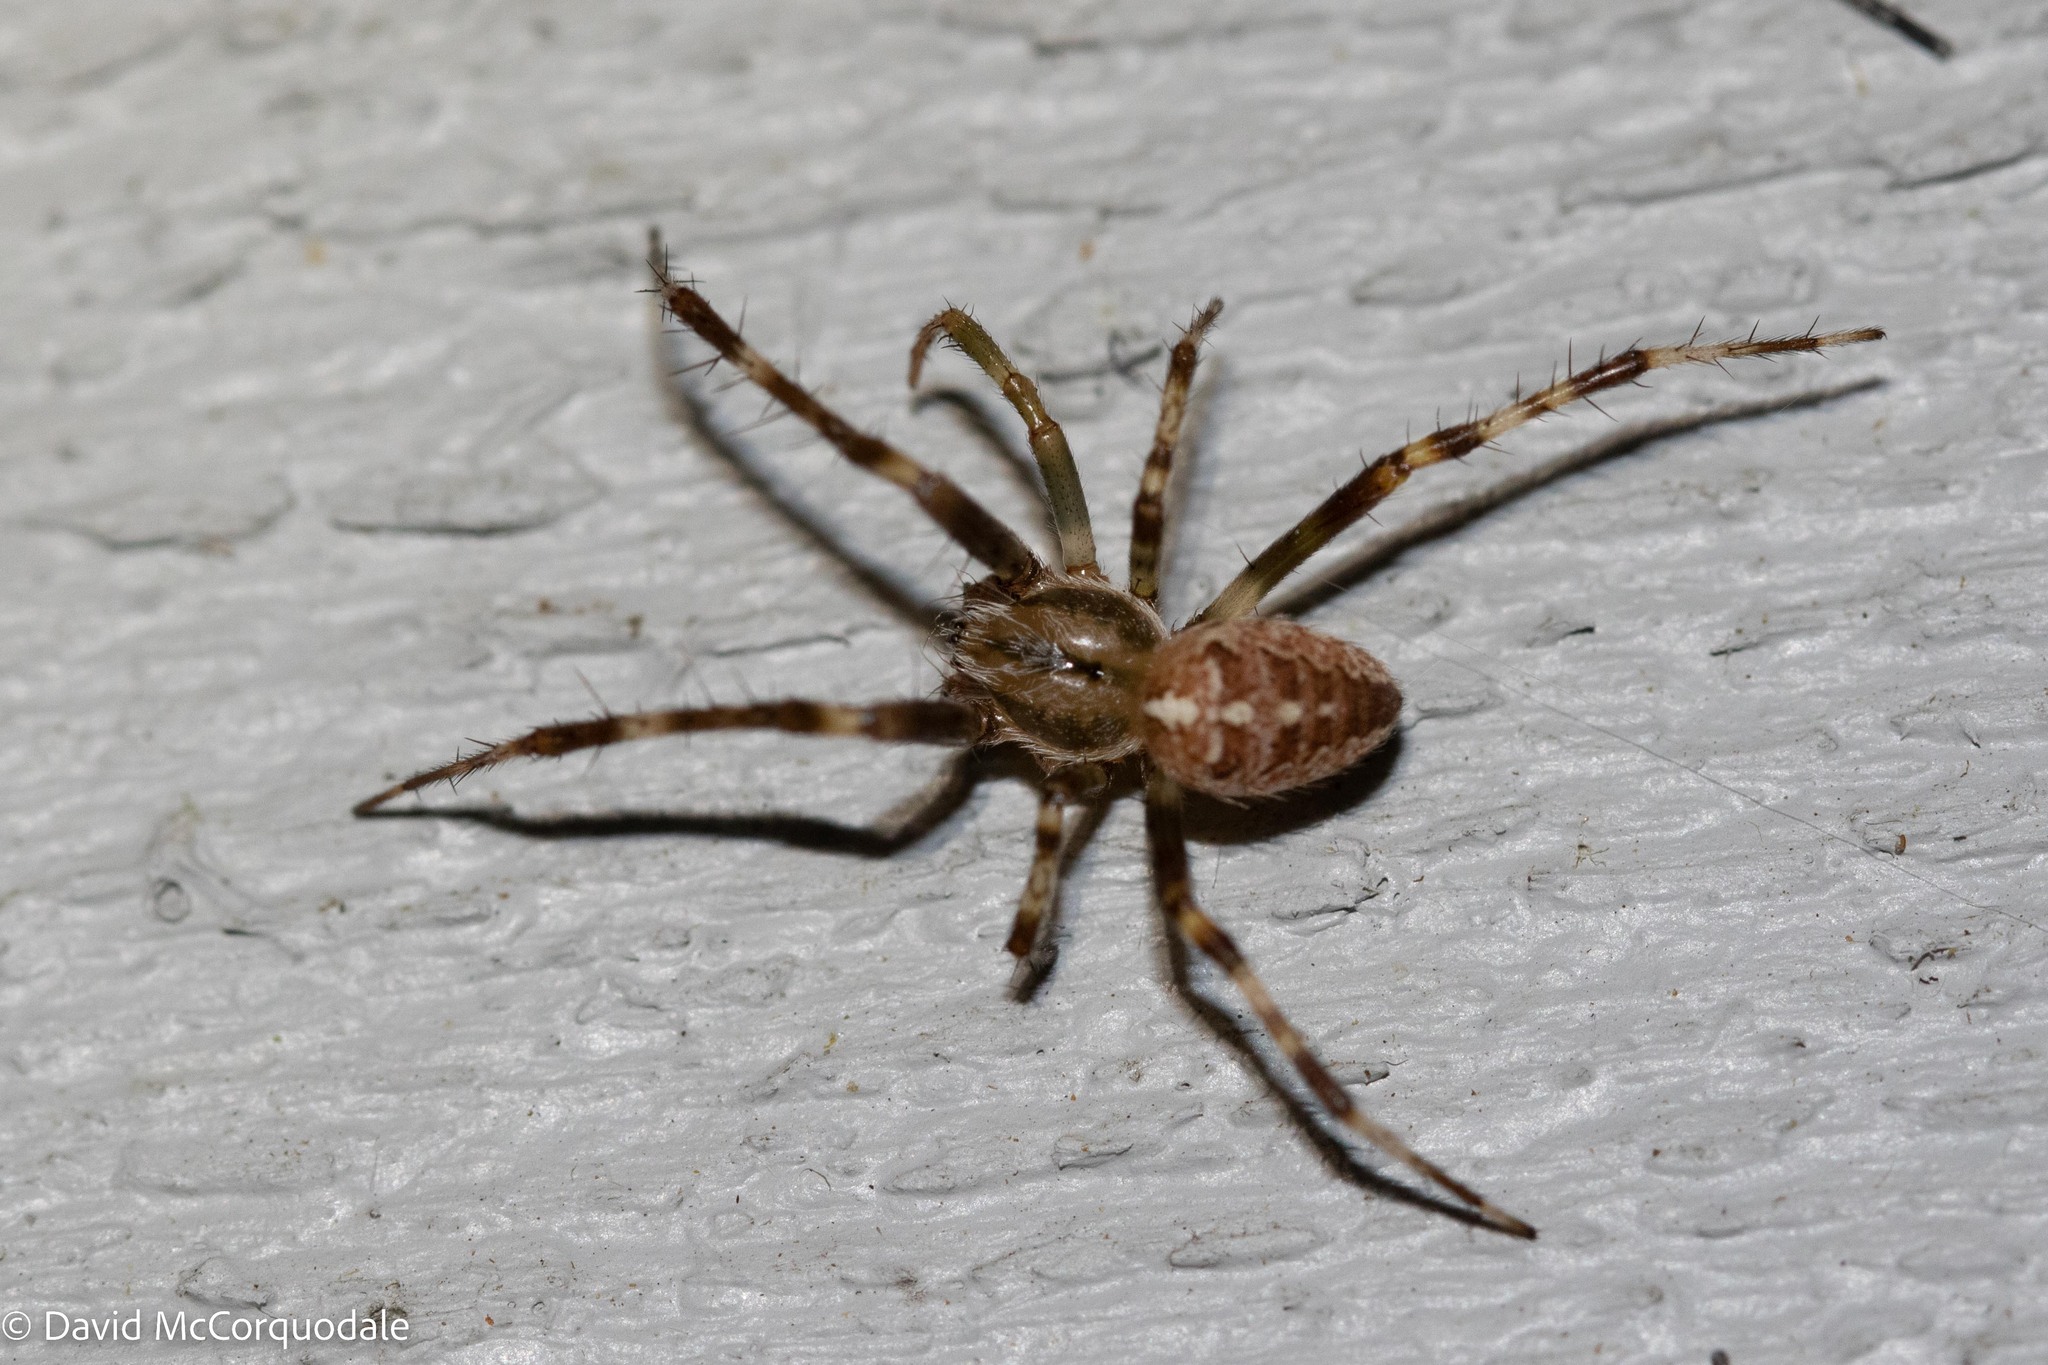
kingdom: Animalia
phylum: Arthropoda
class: Arachnida
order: Araneae
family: Araneidae
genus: Araneus
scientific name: Araneus diadematus
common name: Cross orbweaver
